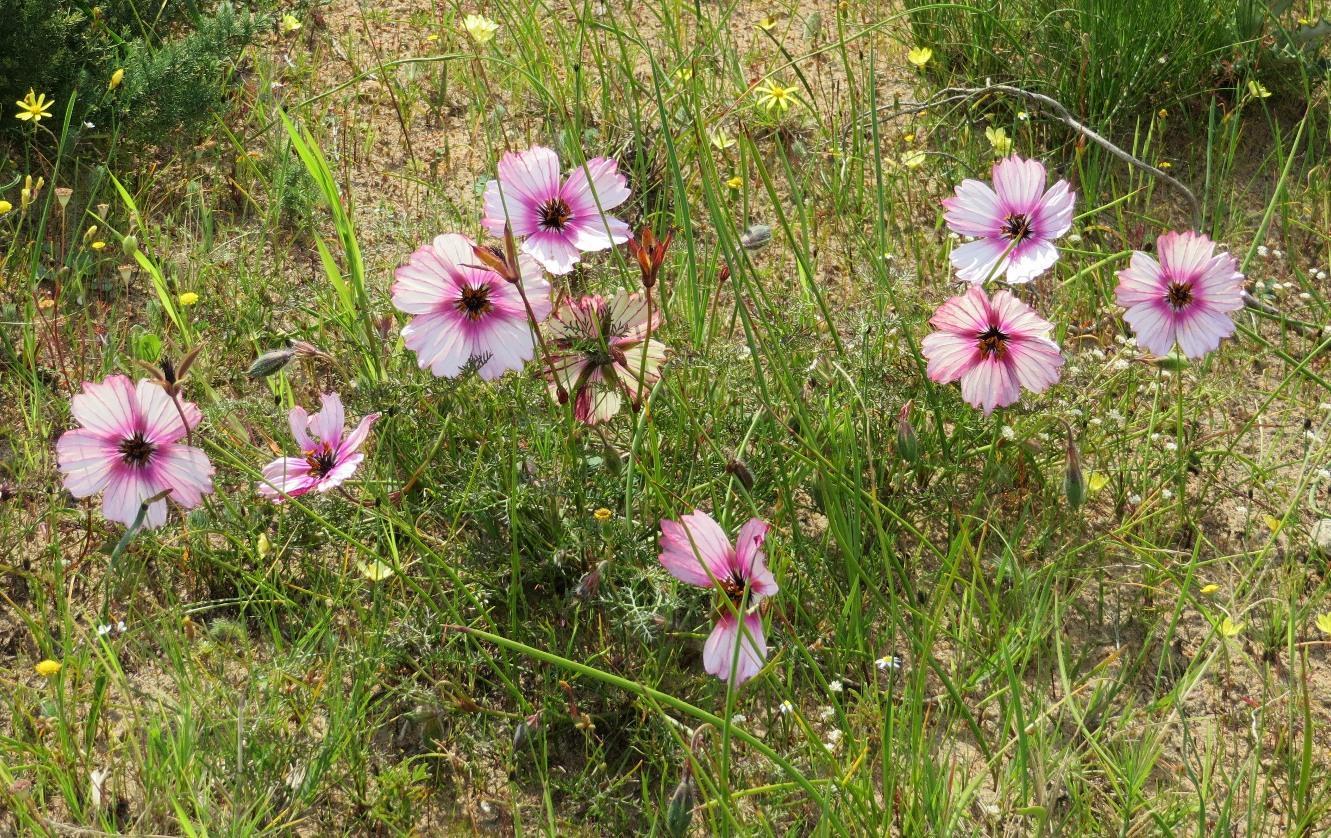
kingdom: Plantae
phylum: Tracheophyta
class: Magnoliopsida
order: Geraniales
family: Geraniaceae
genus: Monsonia
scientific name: Monsonia speciosa
